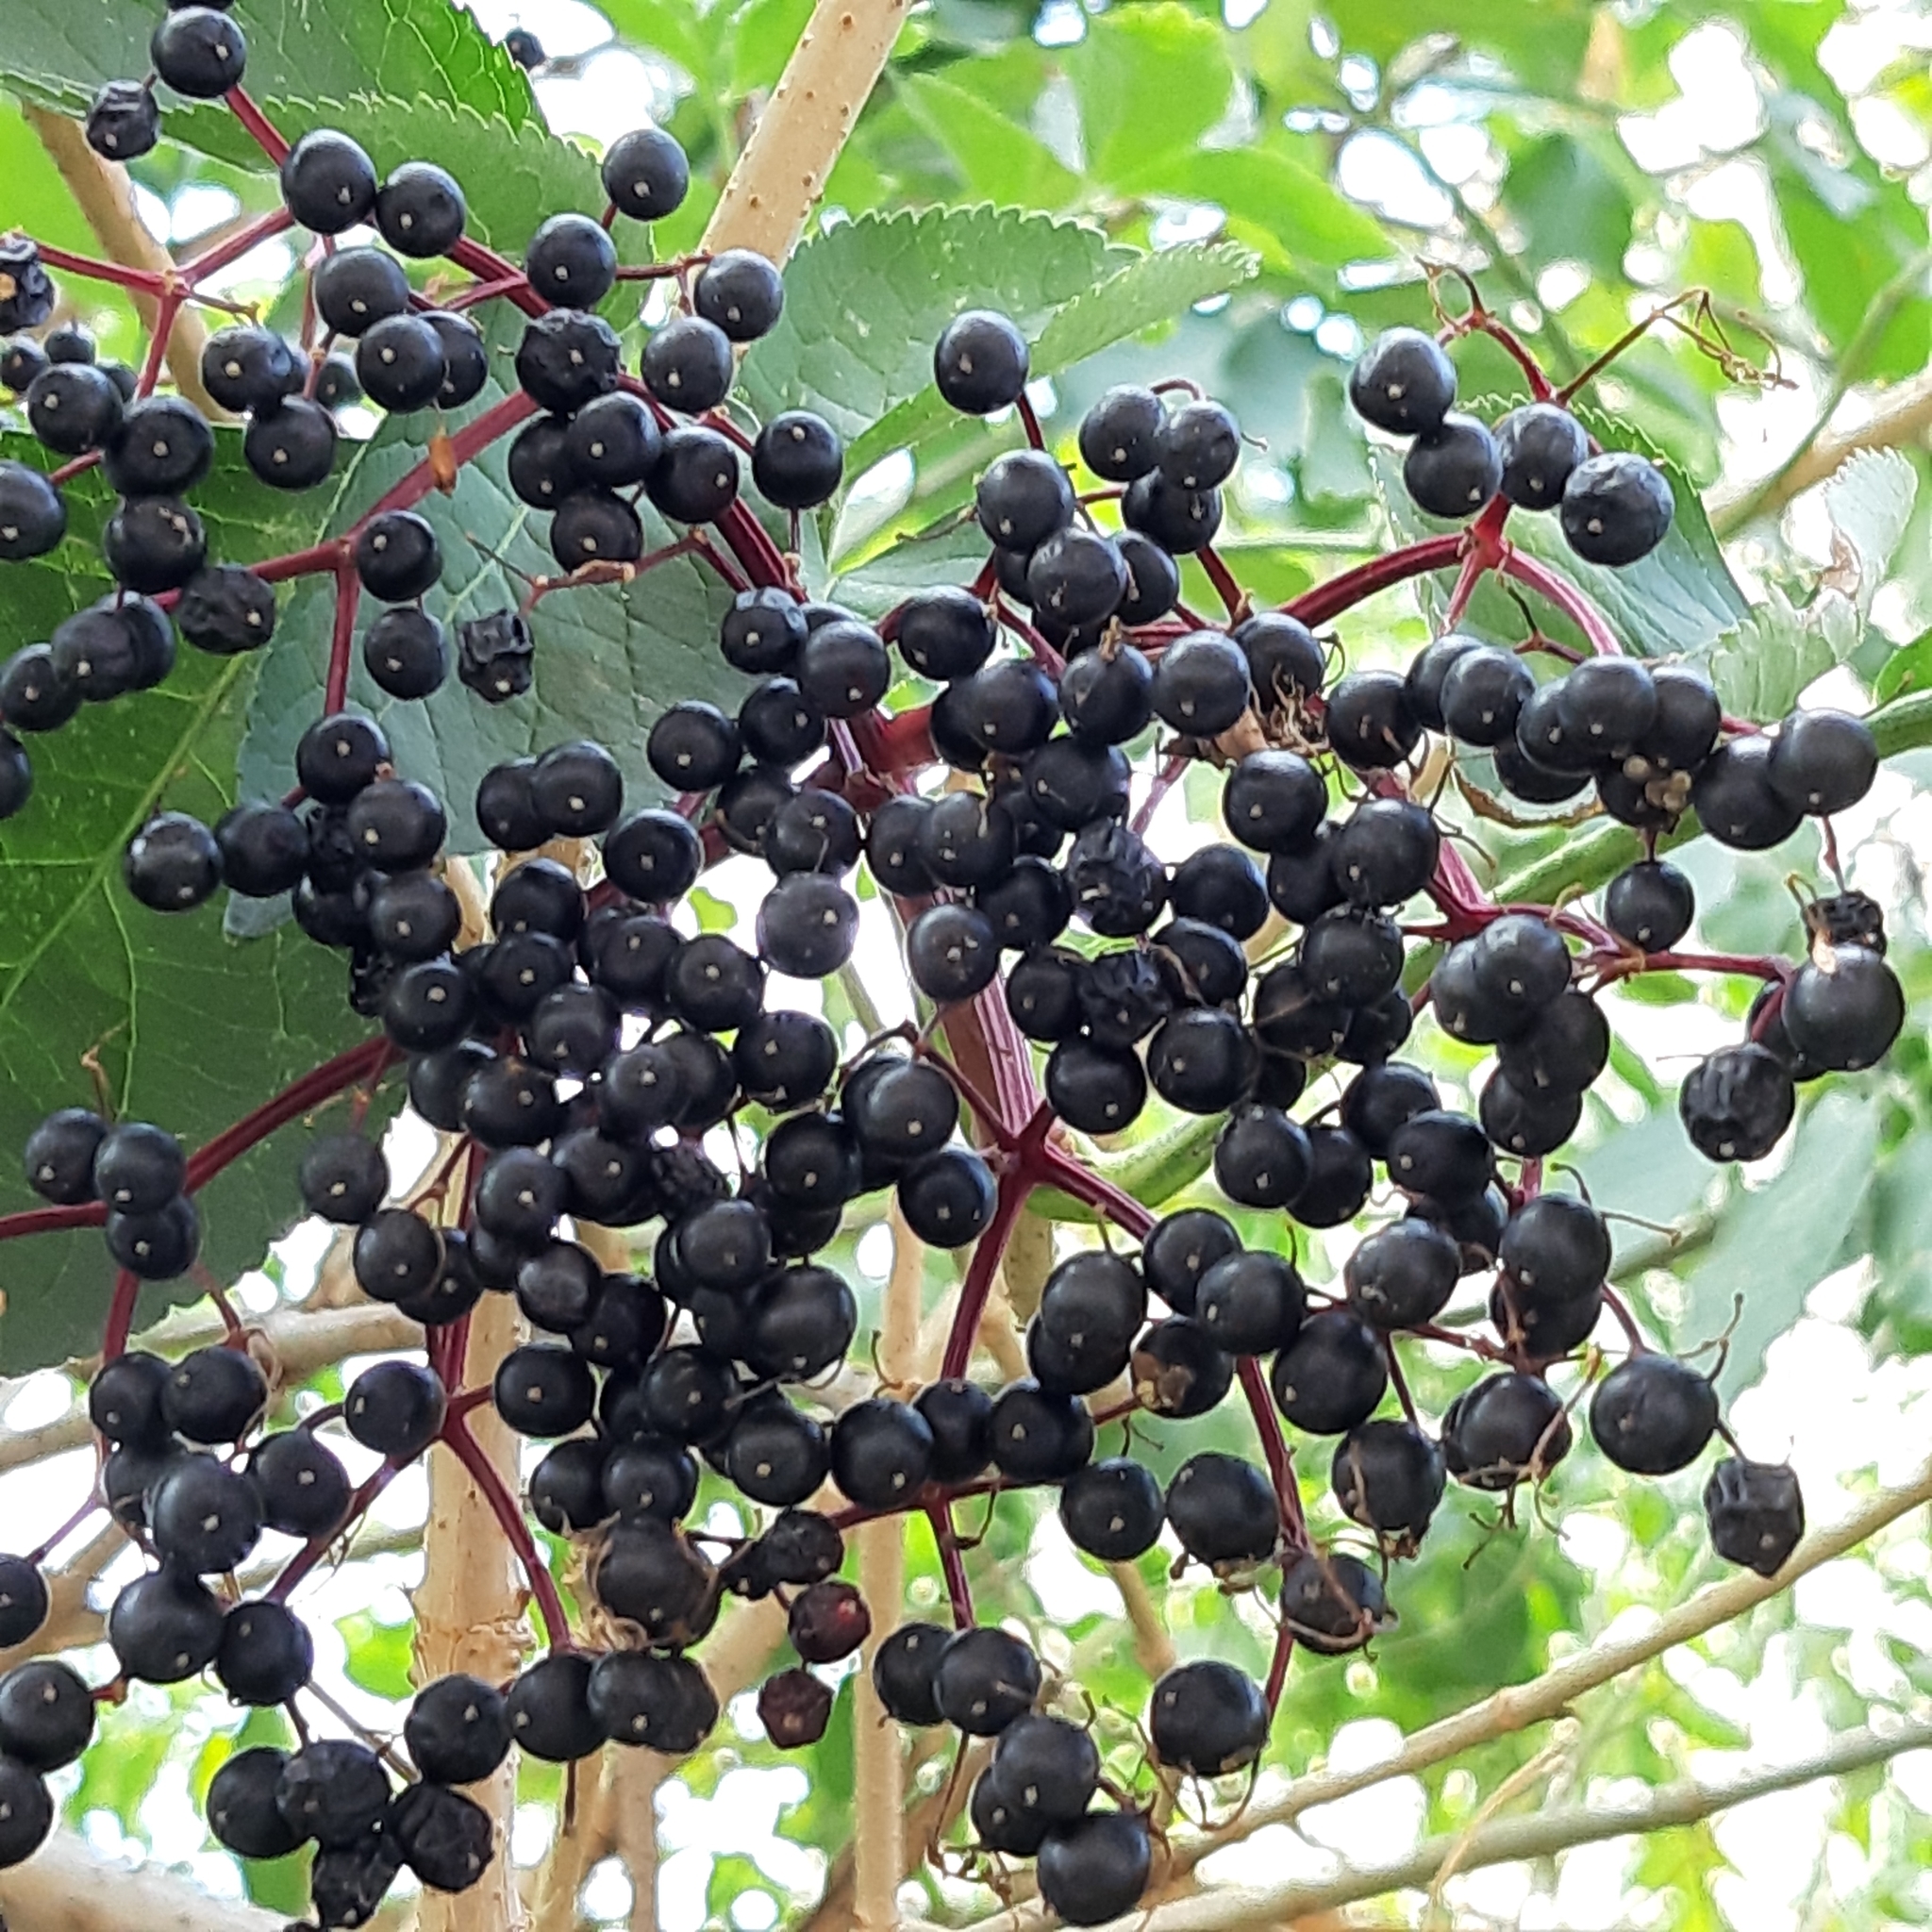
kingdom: Plantae
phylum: Tracheophyta
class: Magnoliopsida
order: Dipsacales
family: Viburnaceae
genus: Sambucus
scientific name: Sambucus nigra
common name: Elder
